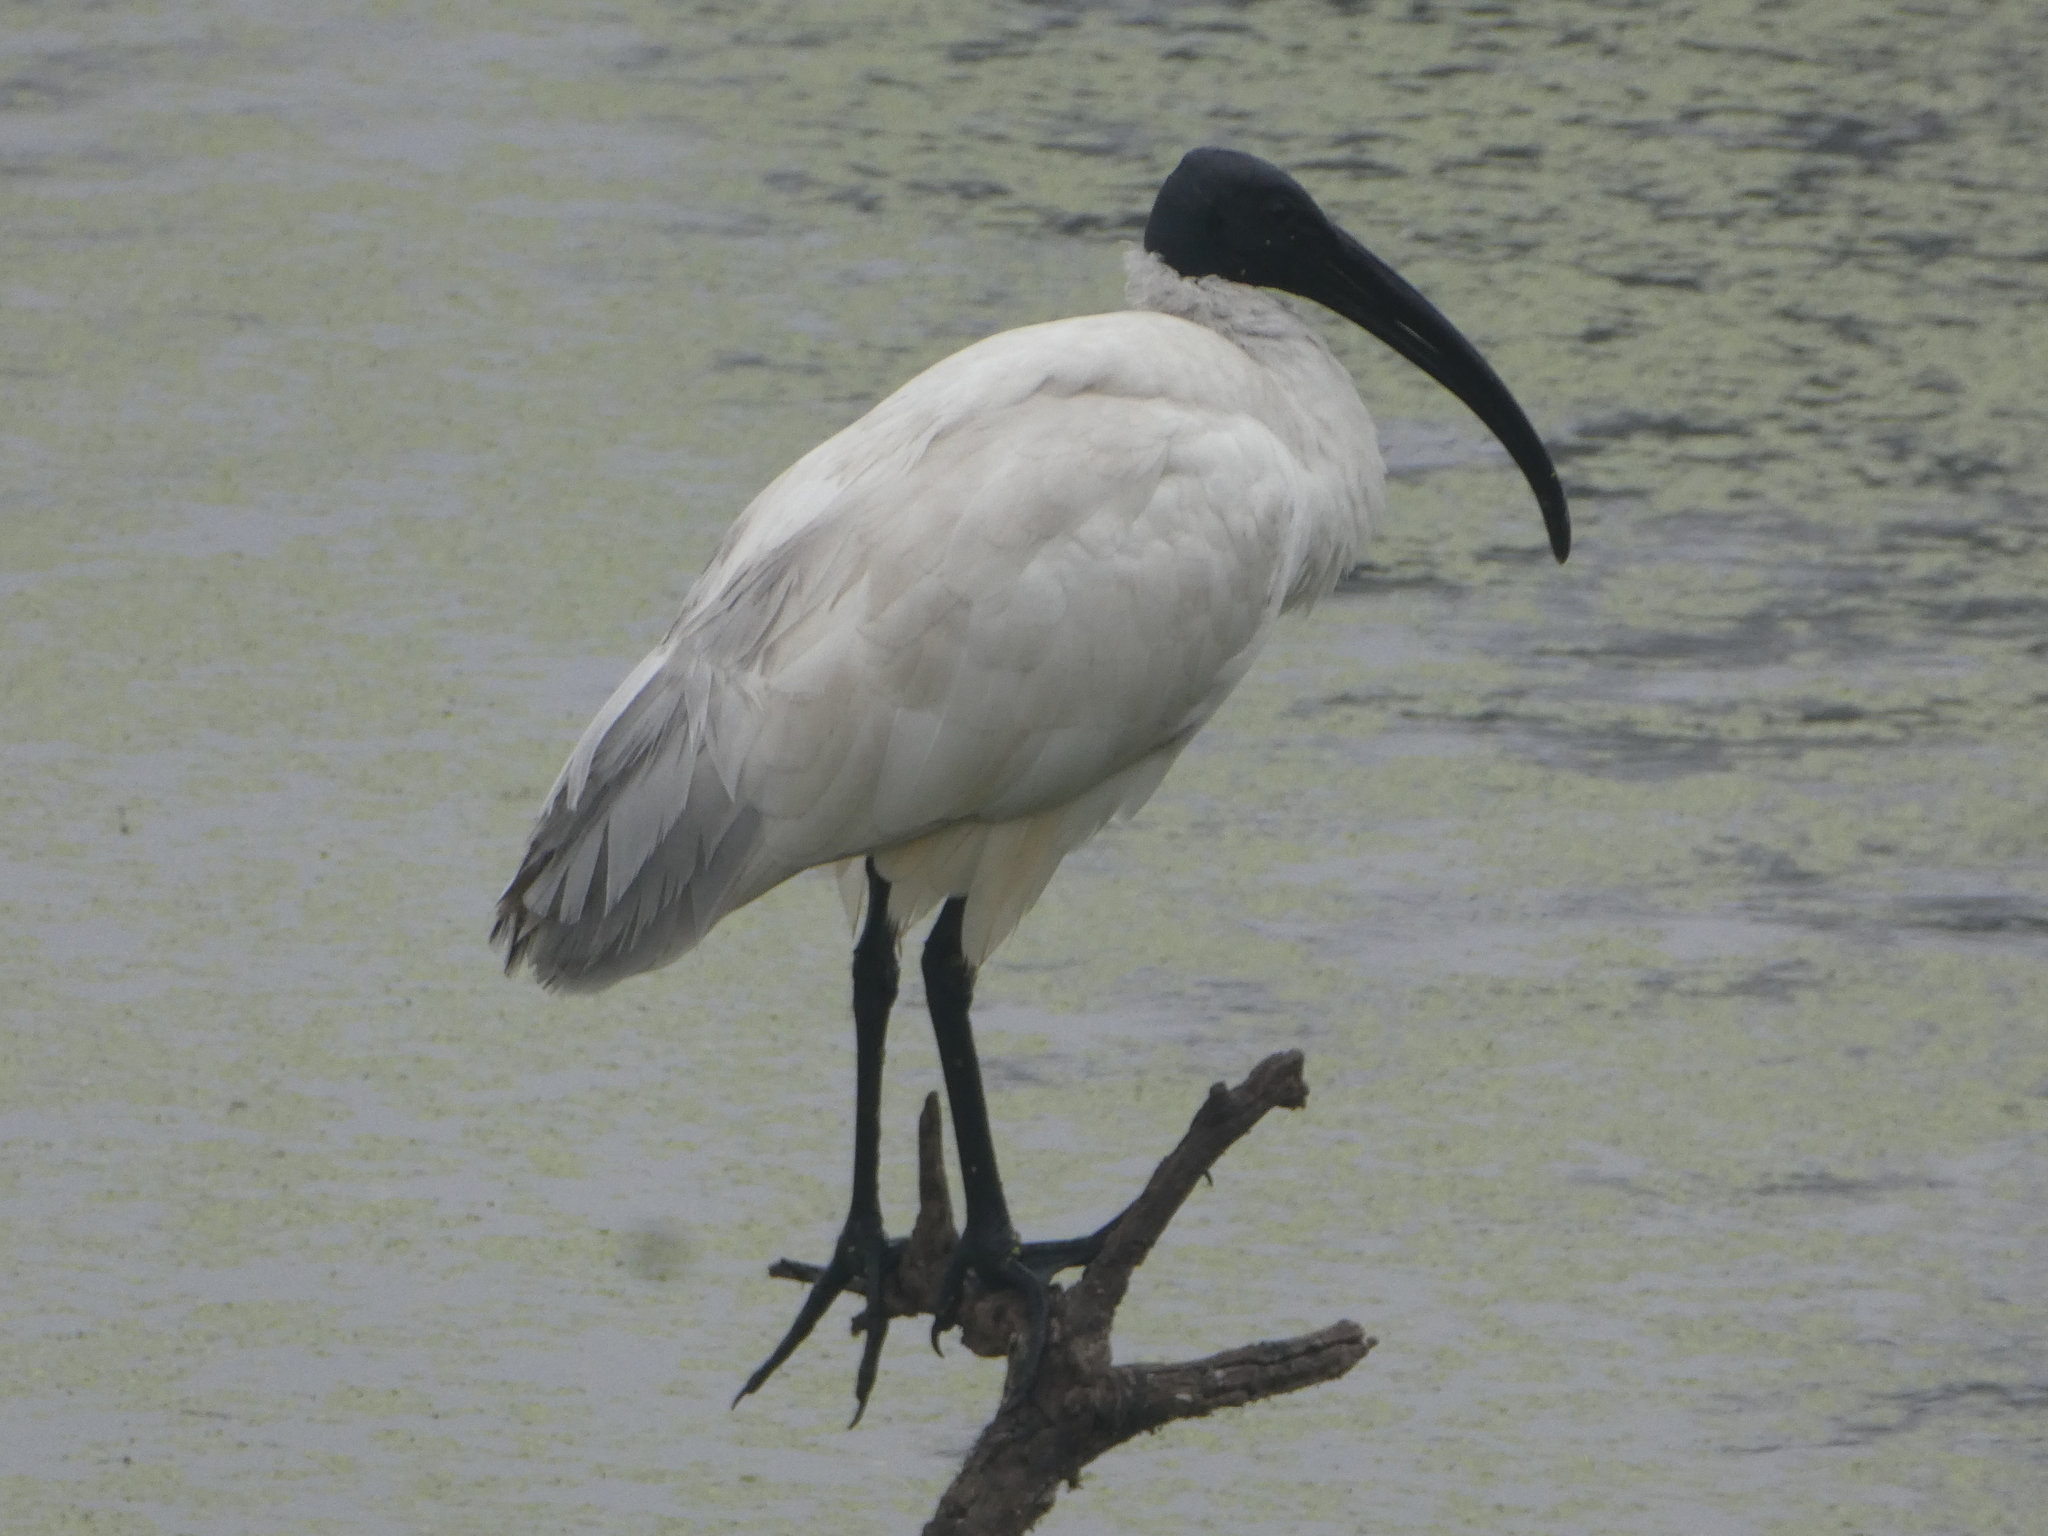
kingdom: Animalia
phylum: Chordata
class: Aves
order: Pelecaniformes
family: Threskiornithidae
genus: Threskiornis
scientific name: Threskiornis melanocephalus
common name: Black-headed ibis
